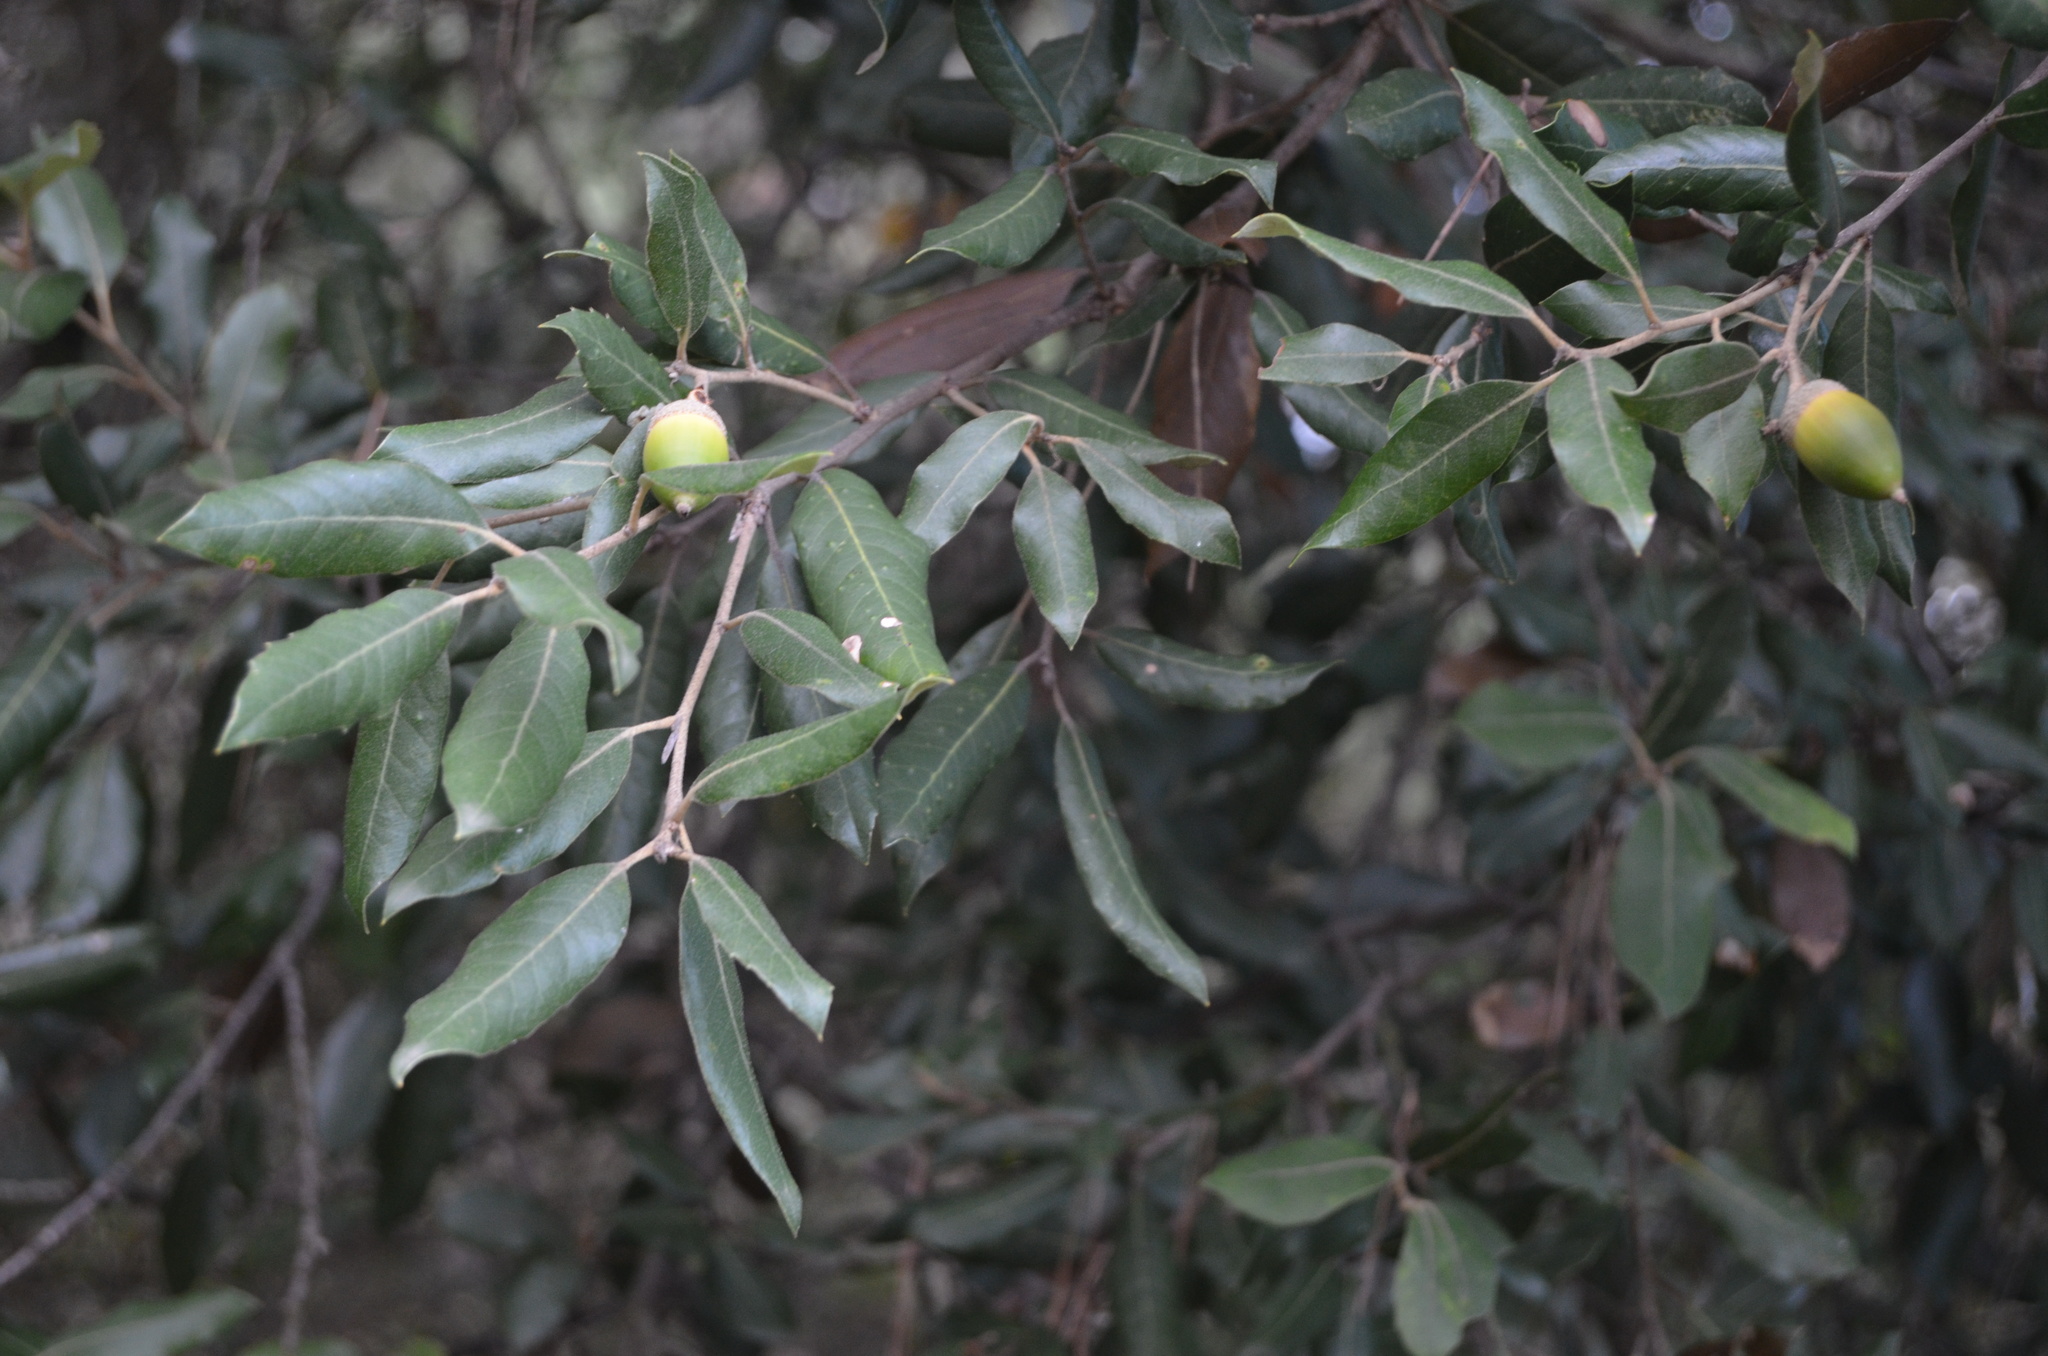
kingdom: Plantae
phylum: Tracheophyta
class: Magnoliopsida
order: Fagales
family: Fagaceae
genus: Quercus
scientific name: Quercus ilex
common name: Evergreen oak
